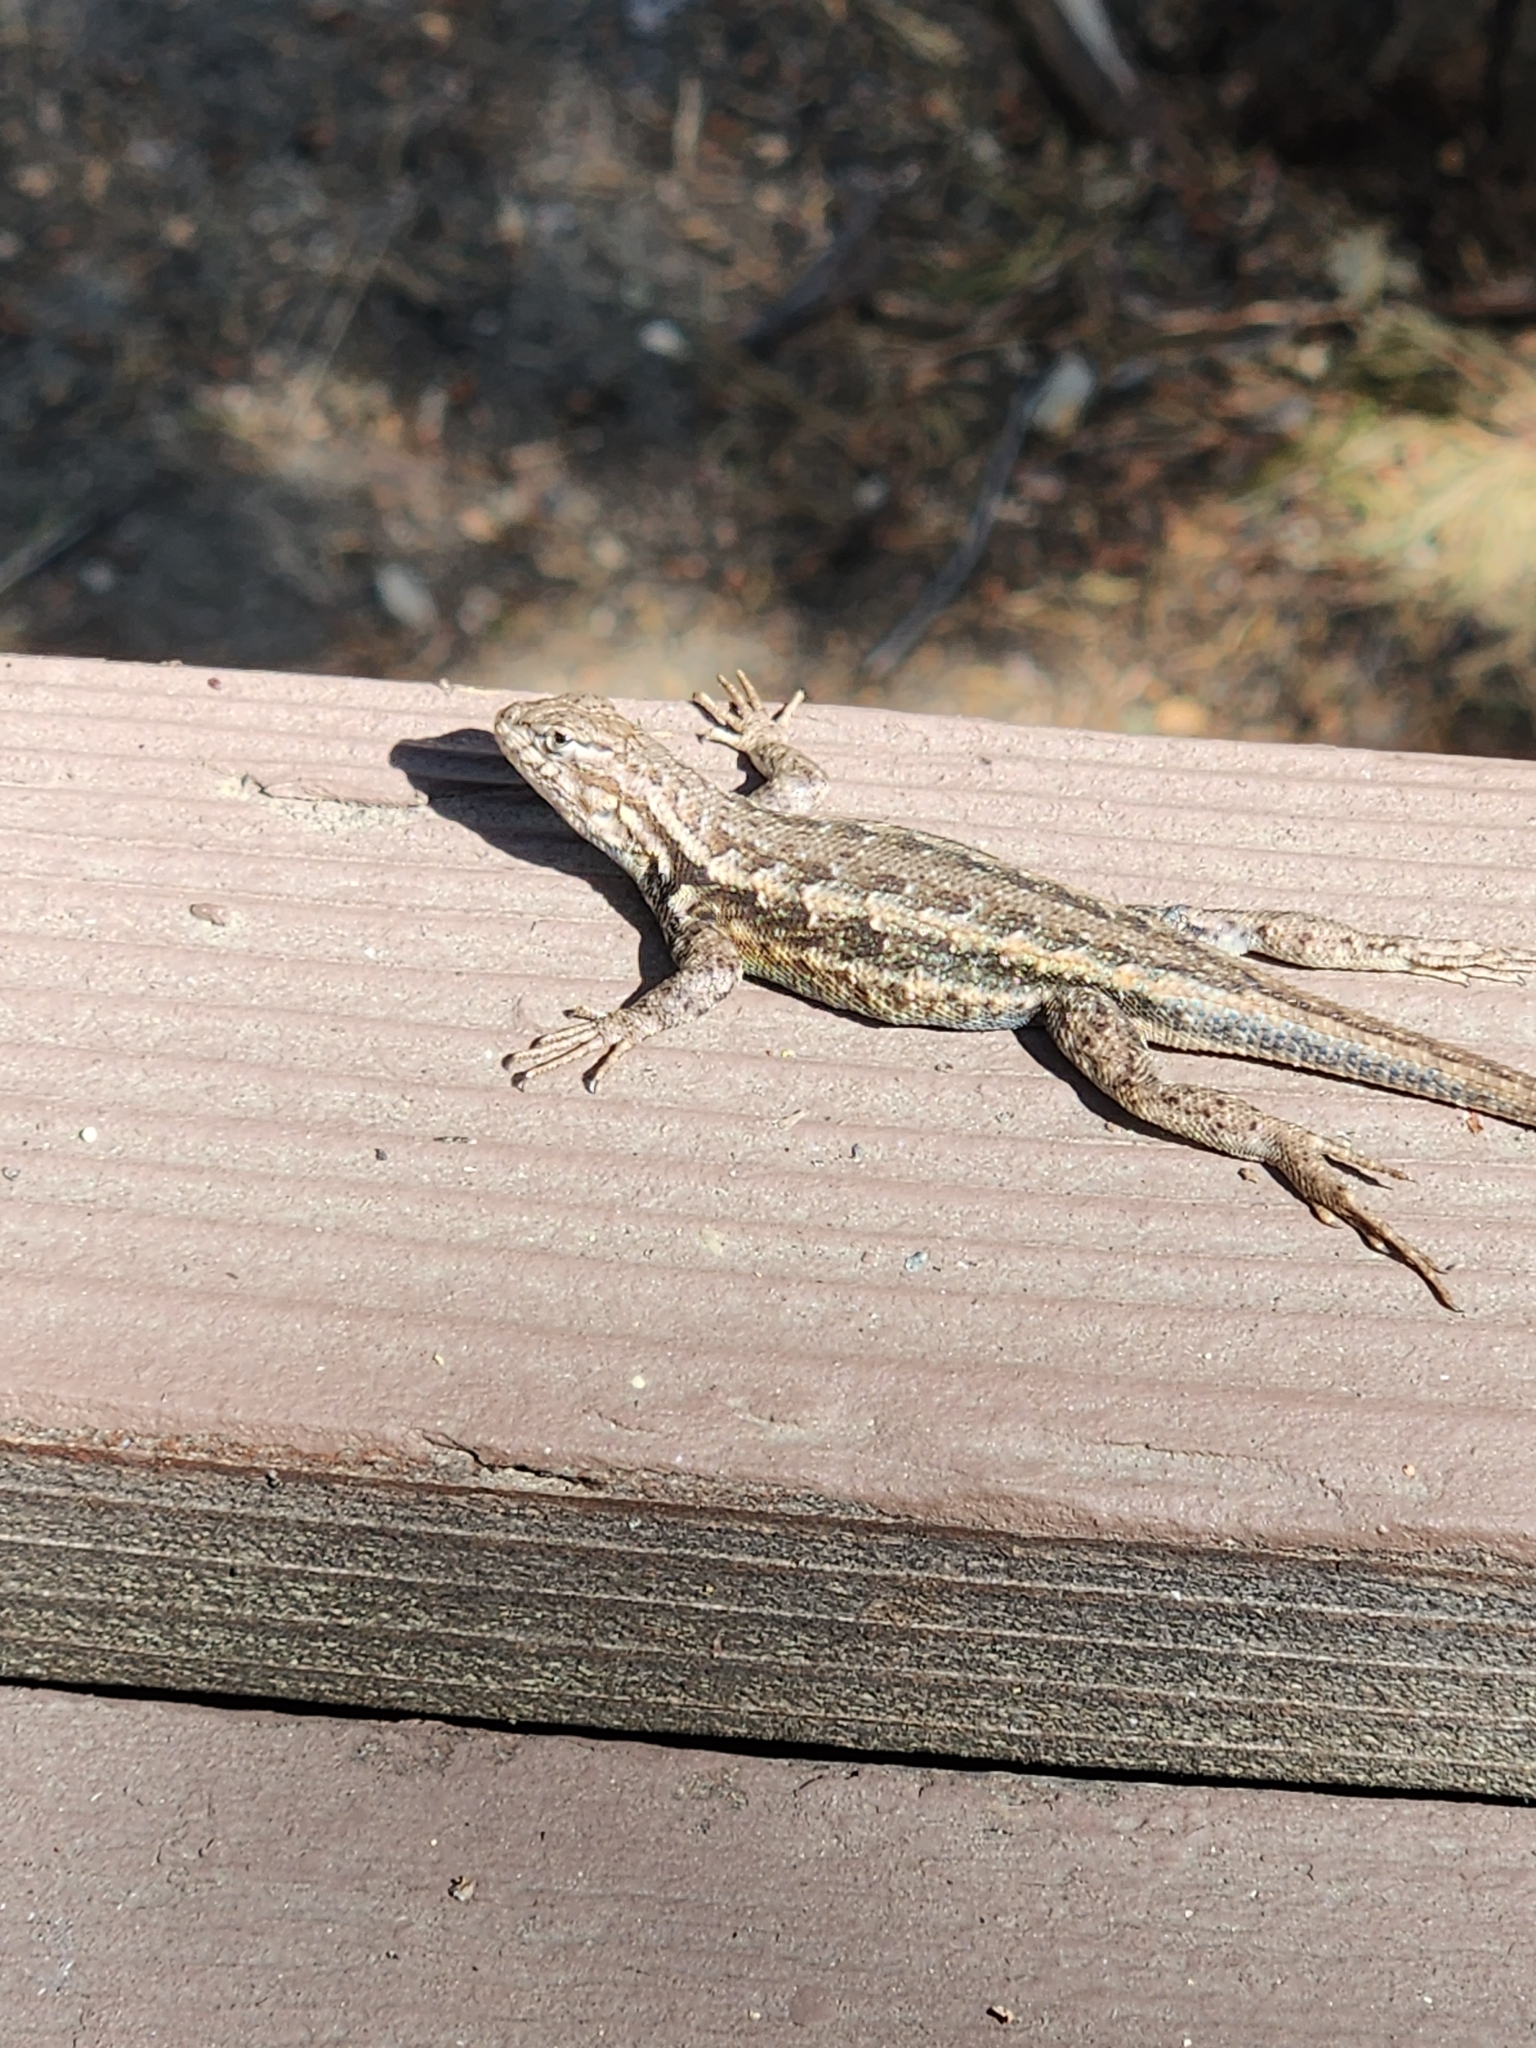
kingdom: Animalia
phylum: Chordata
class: Squamata
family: Phrynosomatidae
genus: Sceloporus
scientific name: Sceloporus graciosus
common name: Sagebrush lizard
